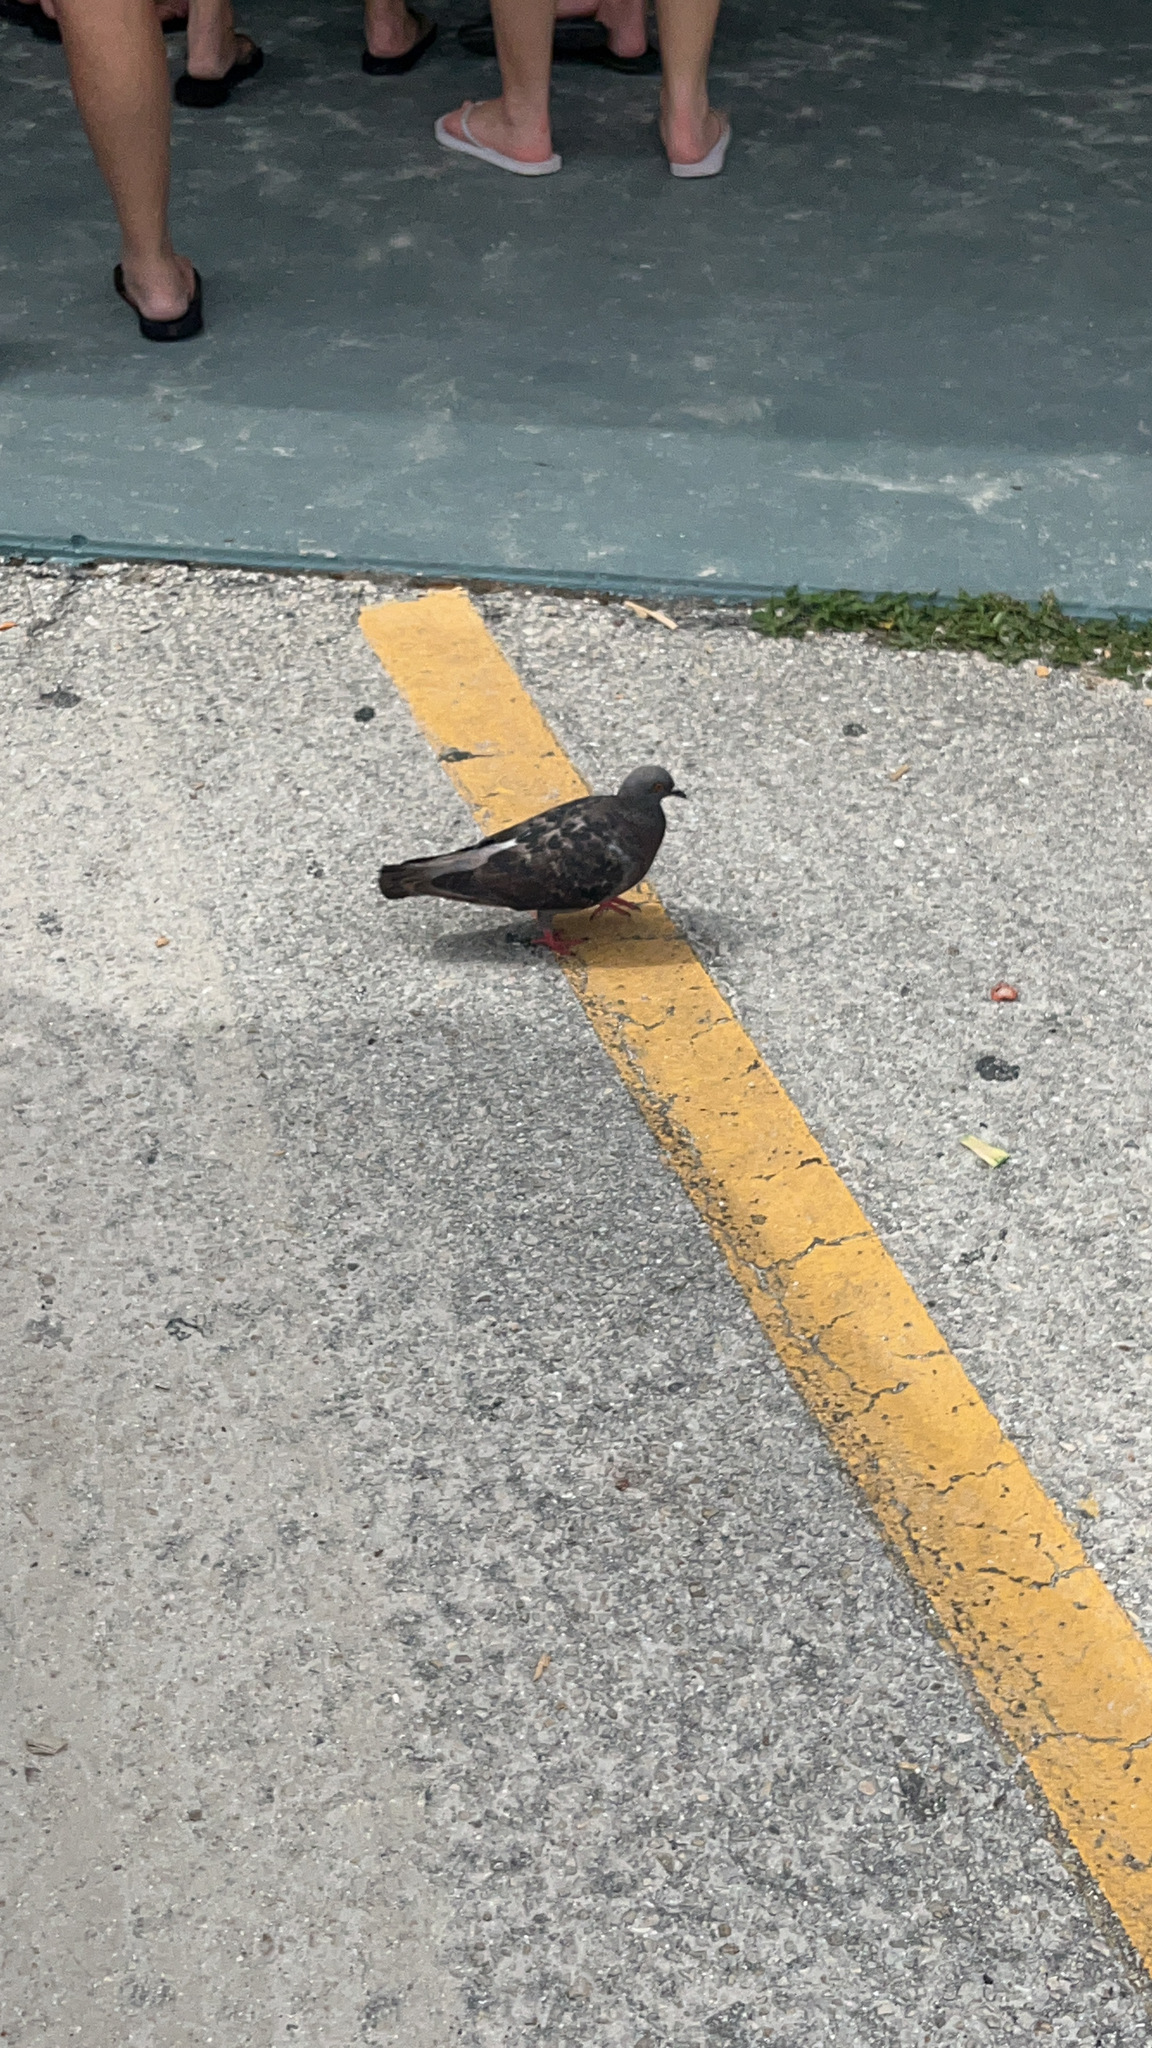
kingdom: Animalia
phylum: Chordata
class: Aves
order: Columbiformes
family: Columbidae
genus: Columba
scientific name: Columba livia
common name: Rock pigeon
